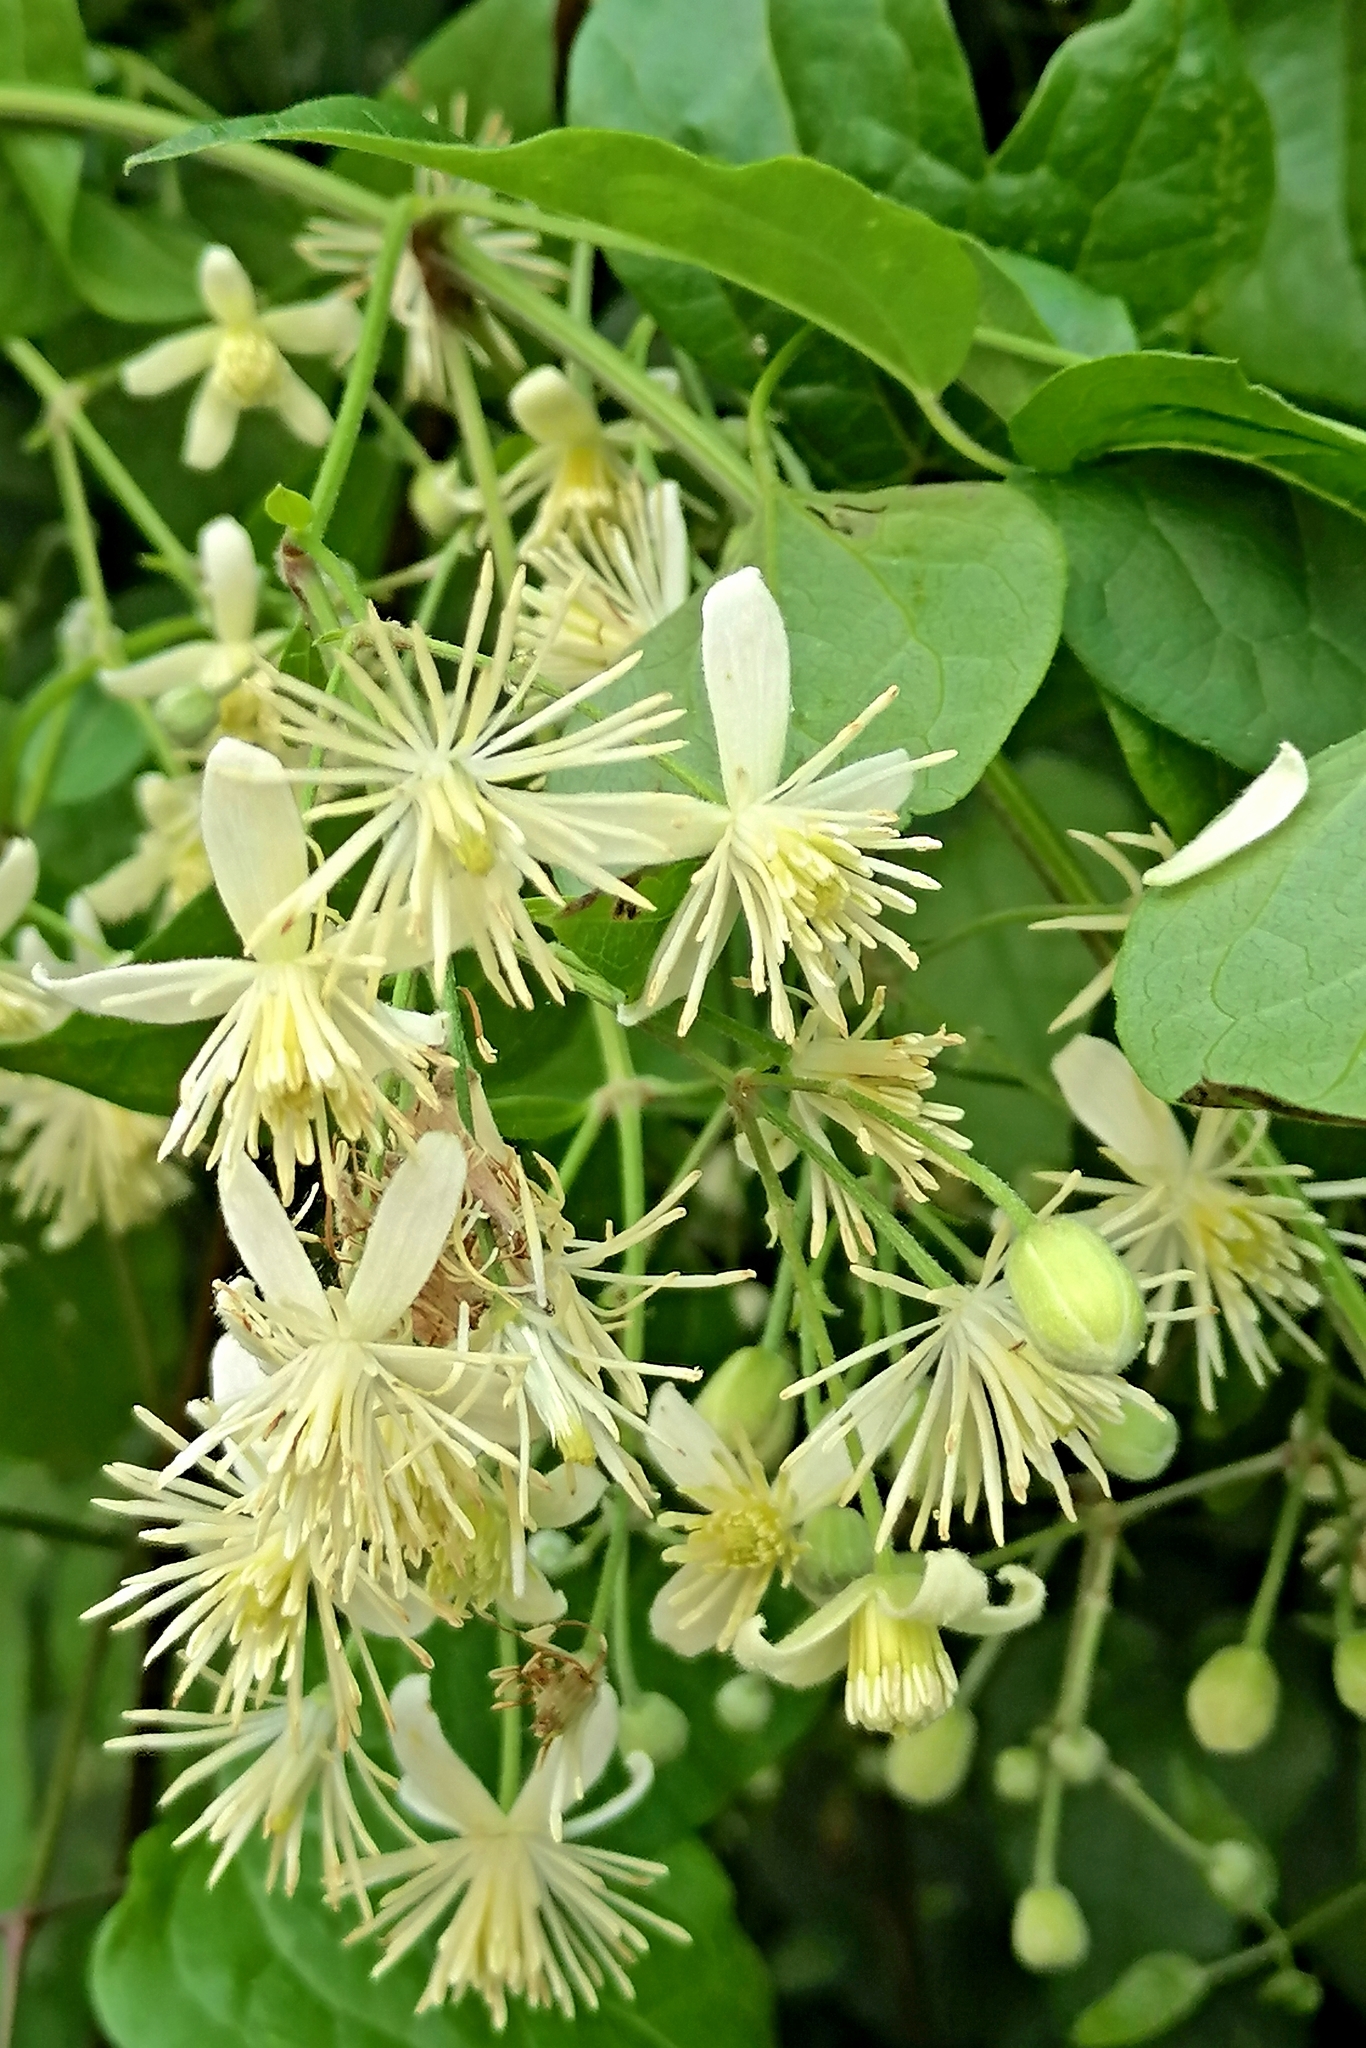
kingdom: Plantae
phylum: Tracheophyta
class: Magnoliopsida
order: Ranunculales
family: Ranunculaceae
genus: Clematis
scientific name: Clematis vitalba
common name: Evergreen clematis
